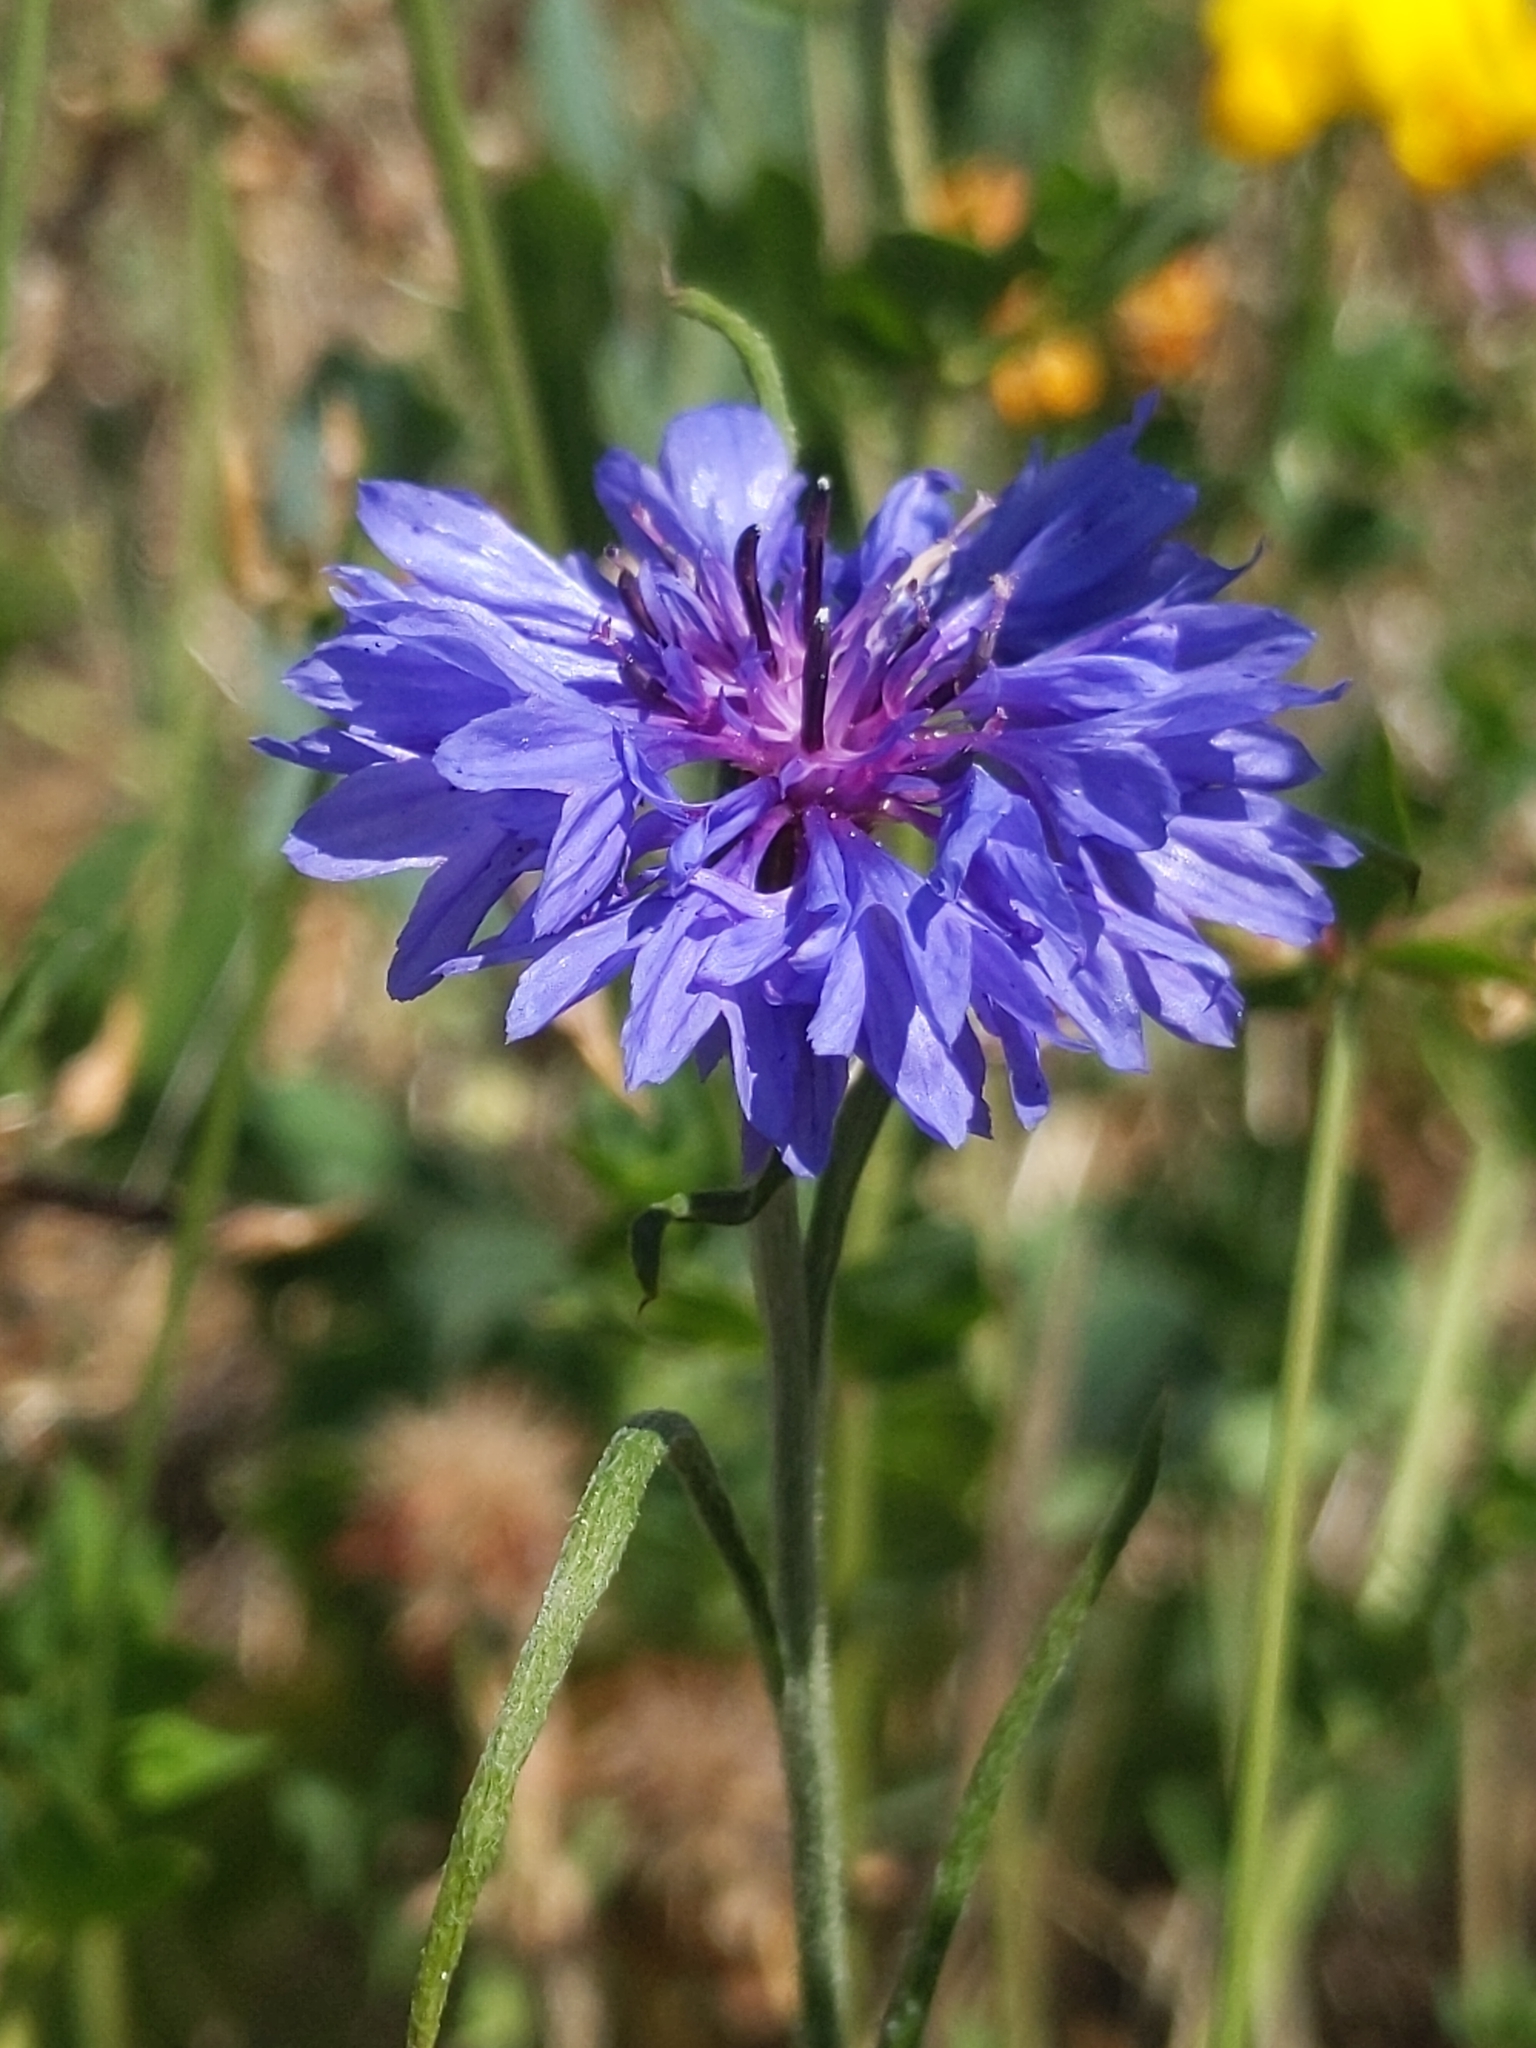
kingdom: Plantae
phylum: Tracheophyta
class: Magnoliopsida
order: Asterales
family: Asteraceae
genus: Centaurea
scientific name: Centaurea cyanus
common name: Cornflower
